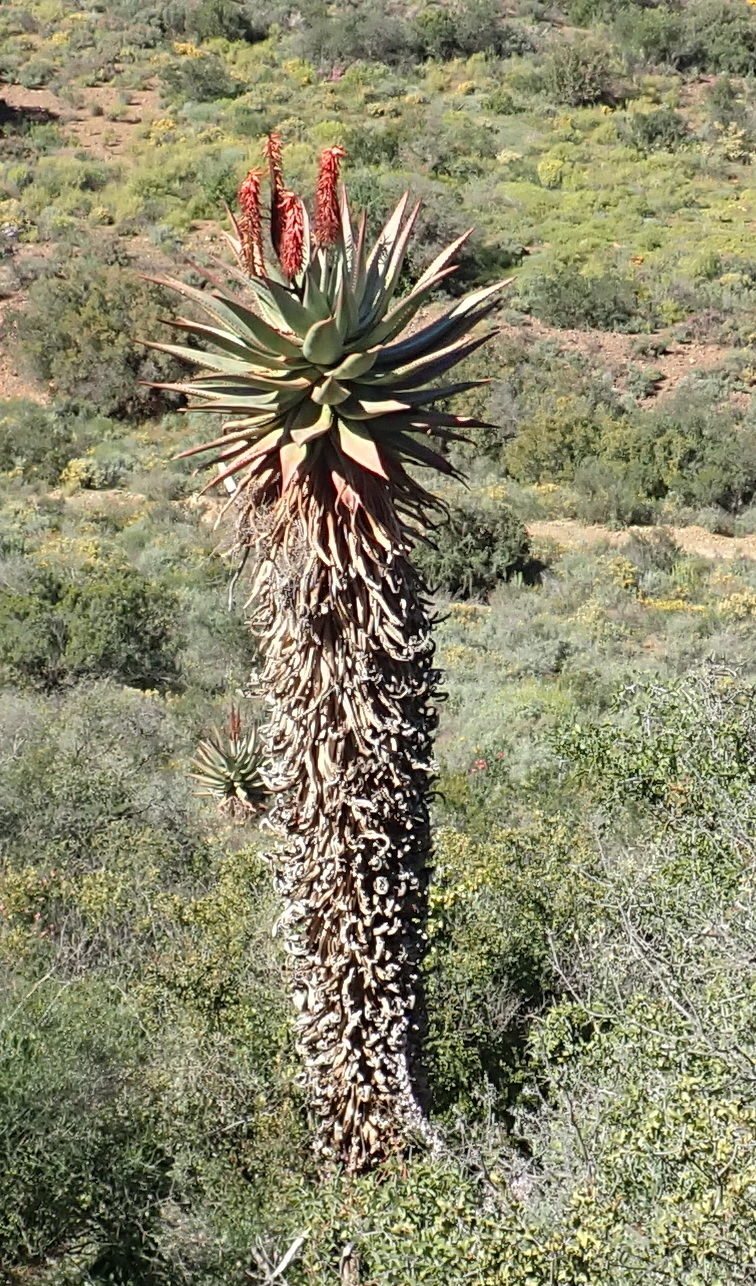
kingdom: Plantae
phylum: Tracheophyta
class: Liliopsida
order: Asparagales
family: Asphodelaceae
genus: Aloe
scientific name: Aloe ferox
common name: Bitter aloe
